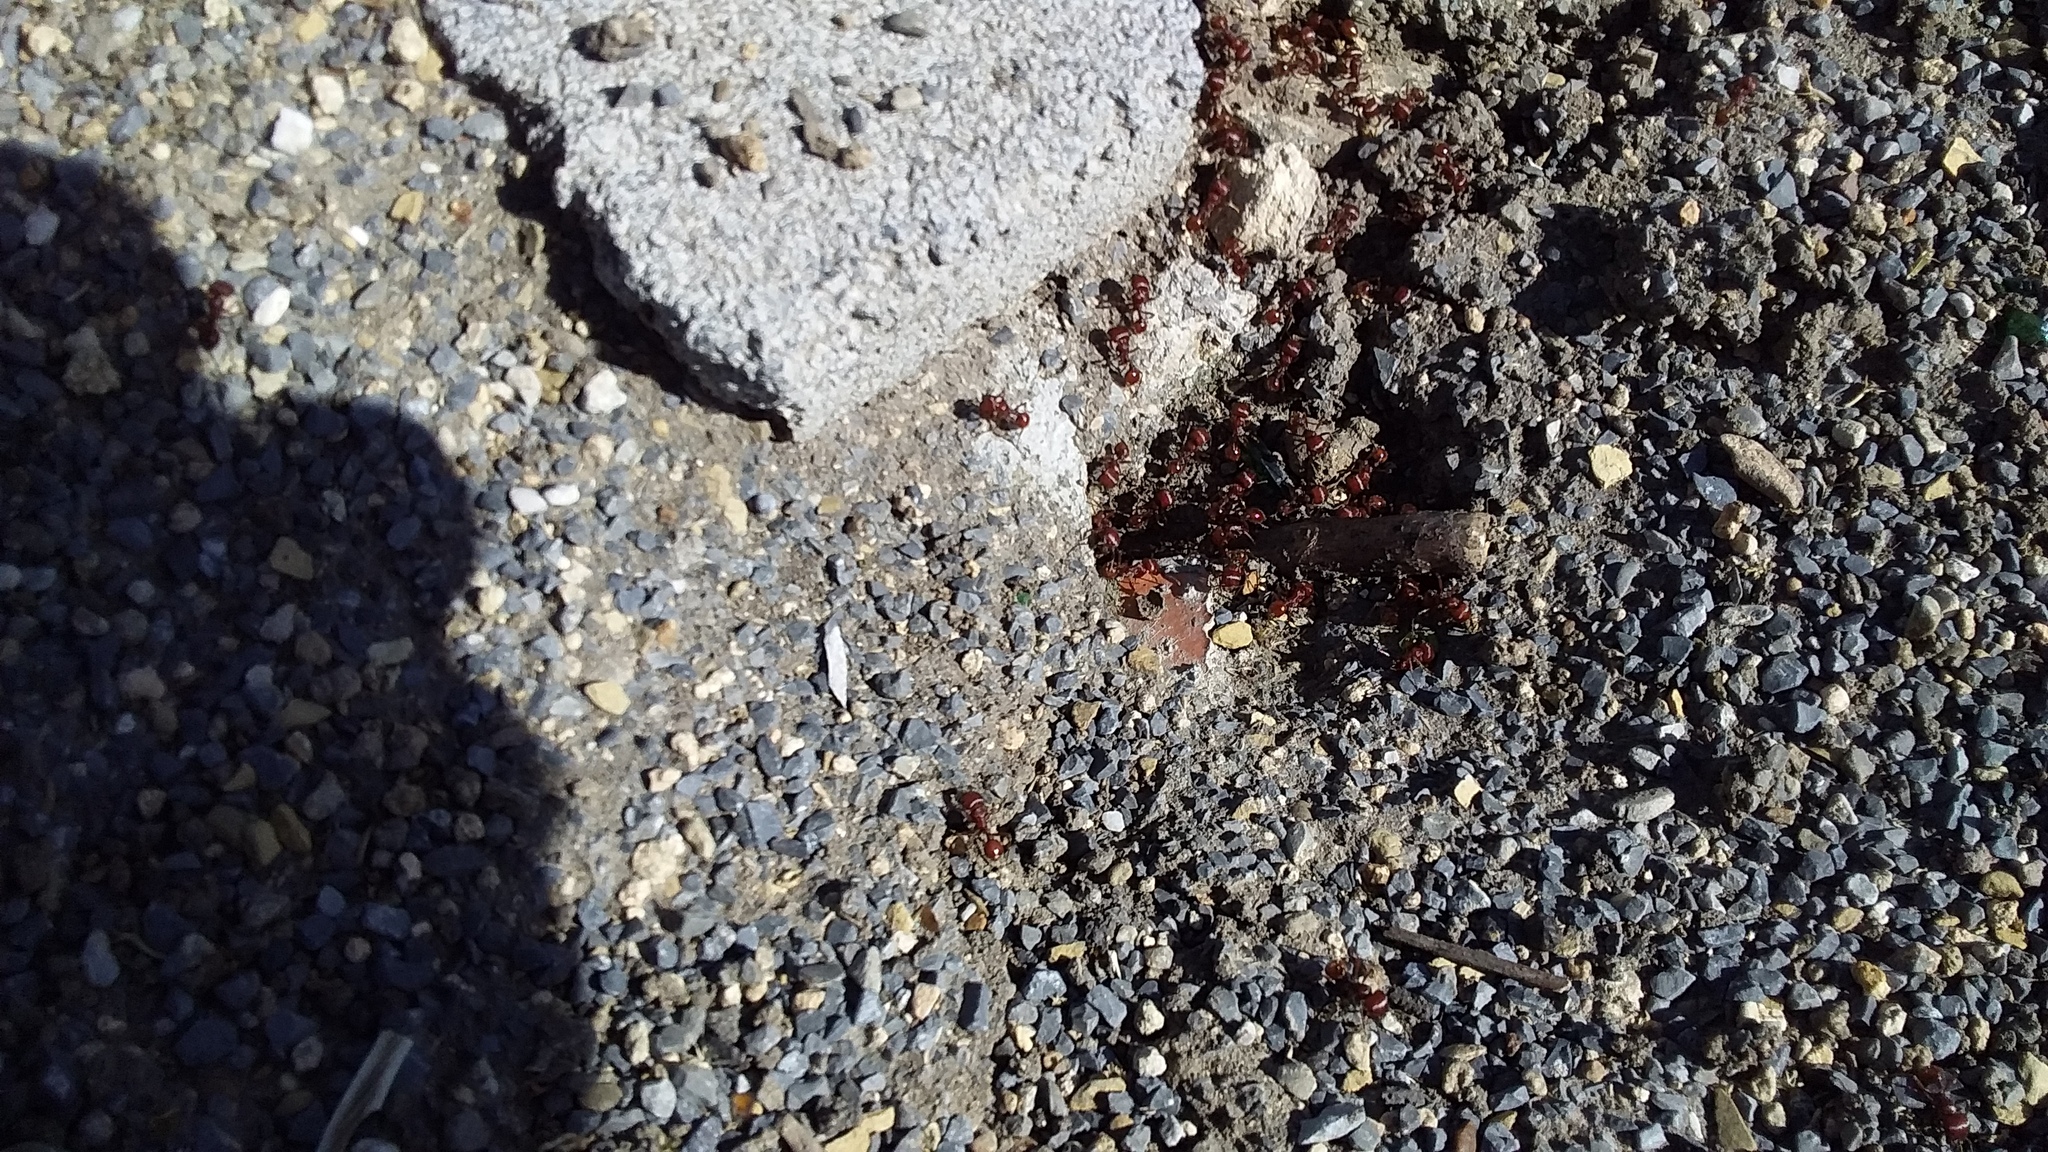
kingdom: Animalia
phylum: Arthropoda
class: Insecta
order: Hymenoptera
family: Formicidae
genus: Pogonomyrmex
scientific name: Pogonomyrmex barbatus
